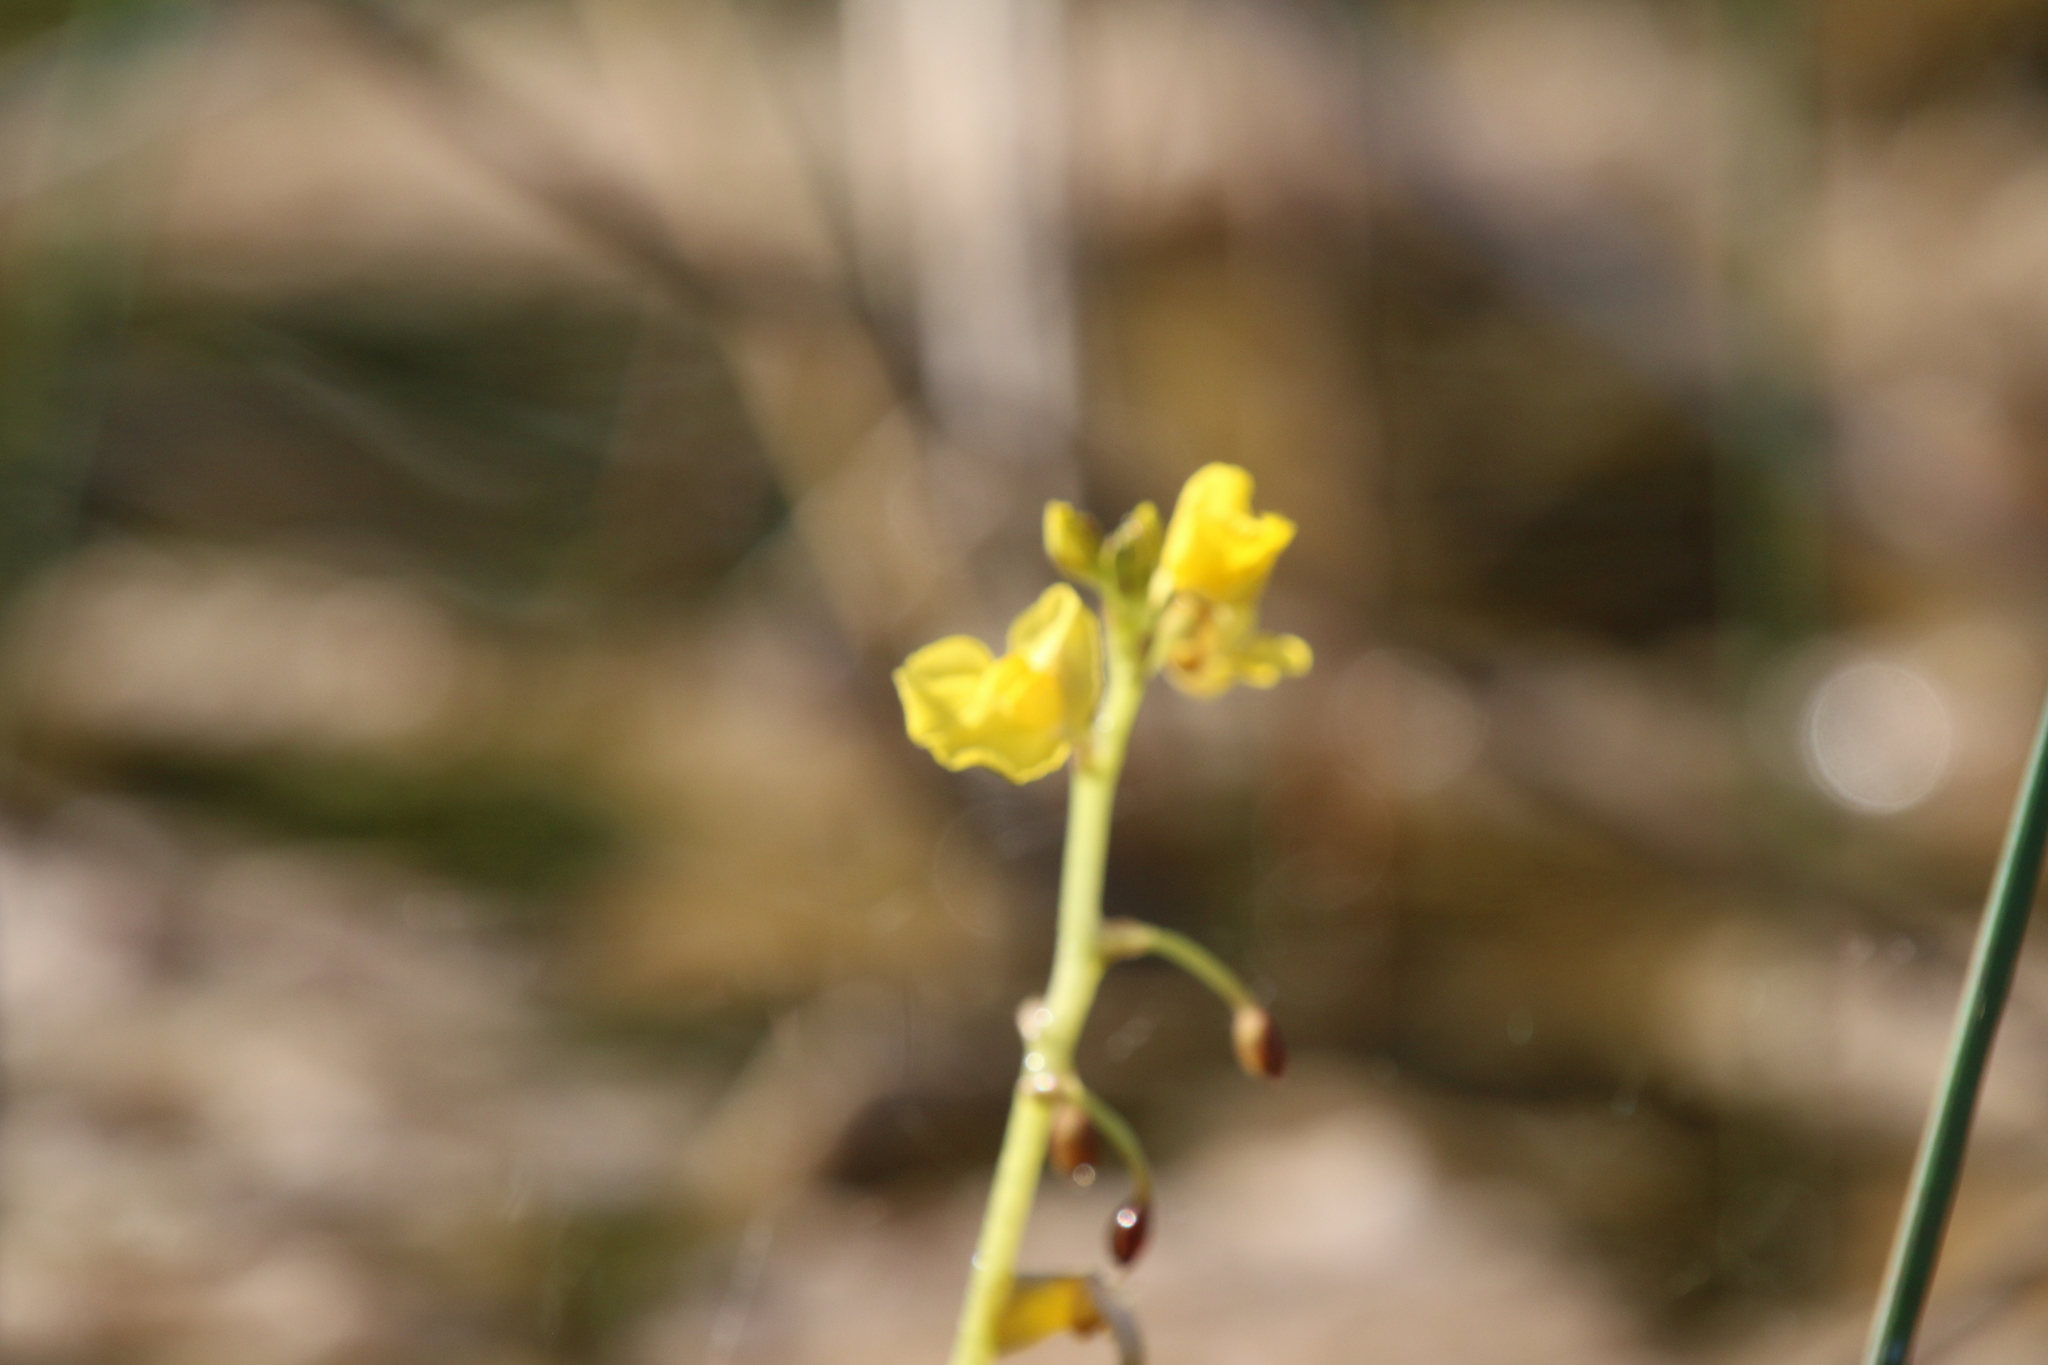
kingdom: Plantae
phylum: Tracheophyta
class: Magnoliopsida
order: Lamiales
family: Lentibulariaceae
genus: Utricularia
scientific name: Utricularia foliosa
